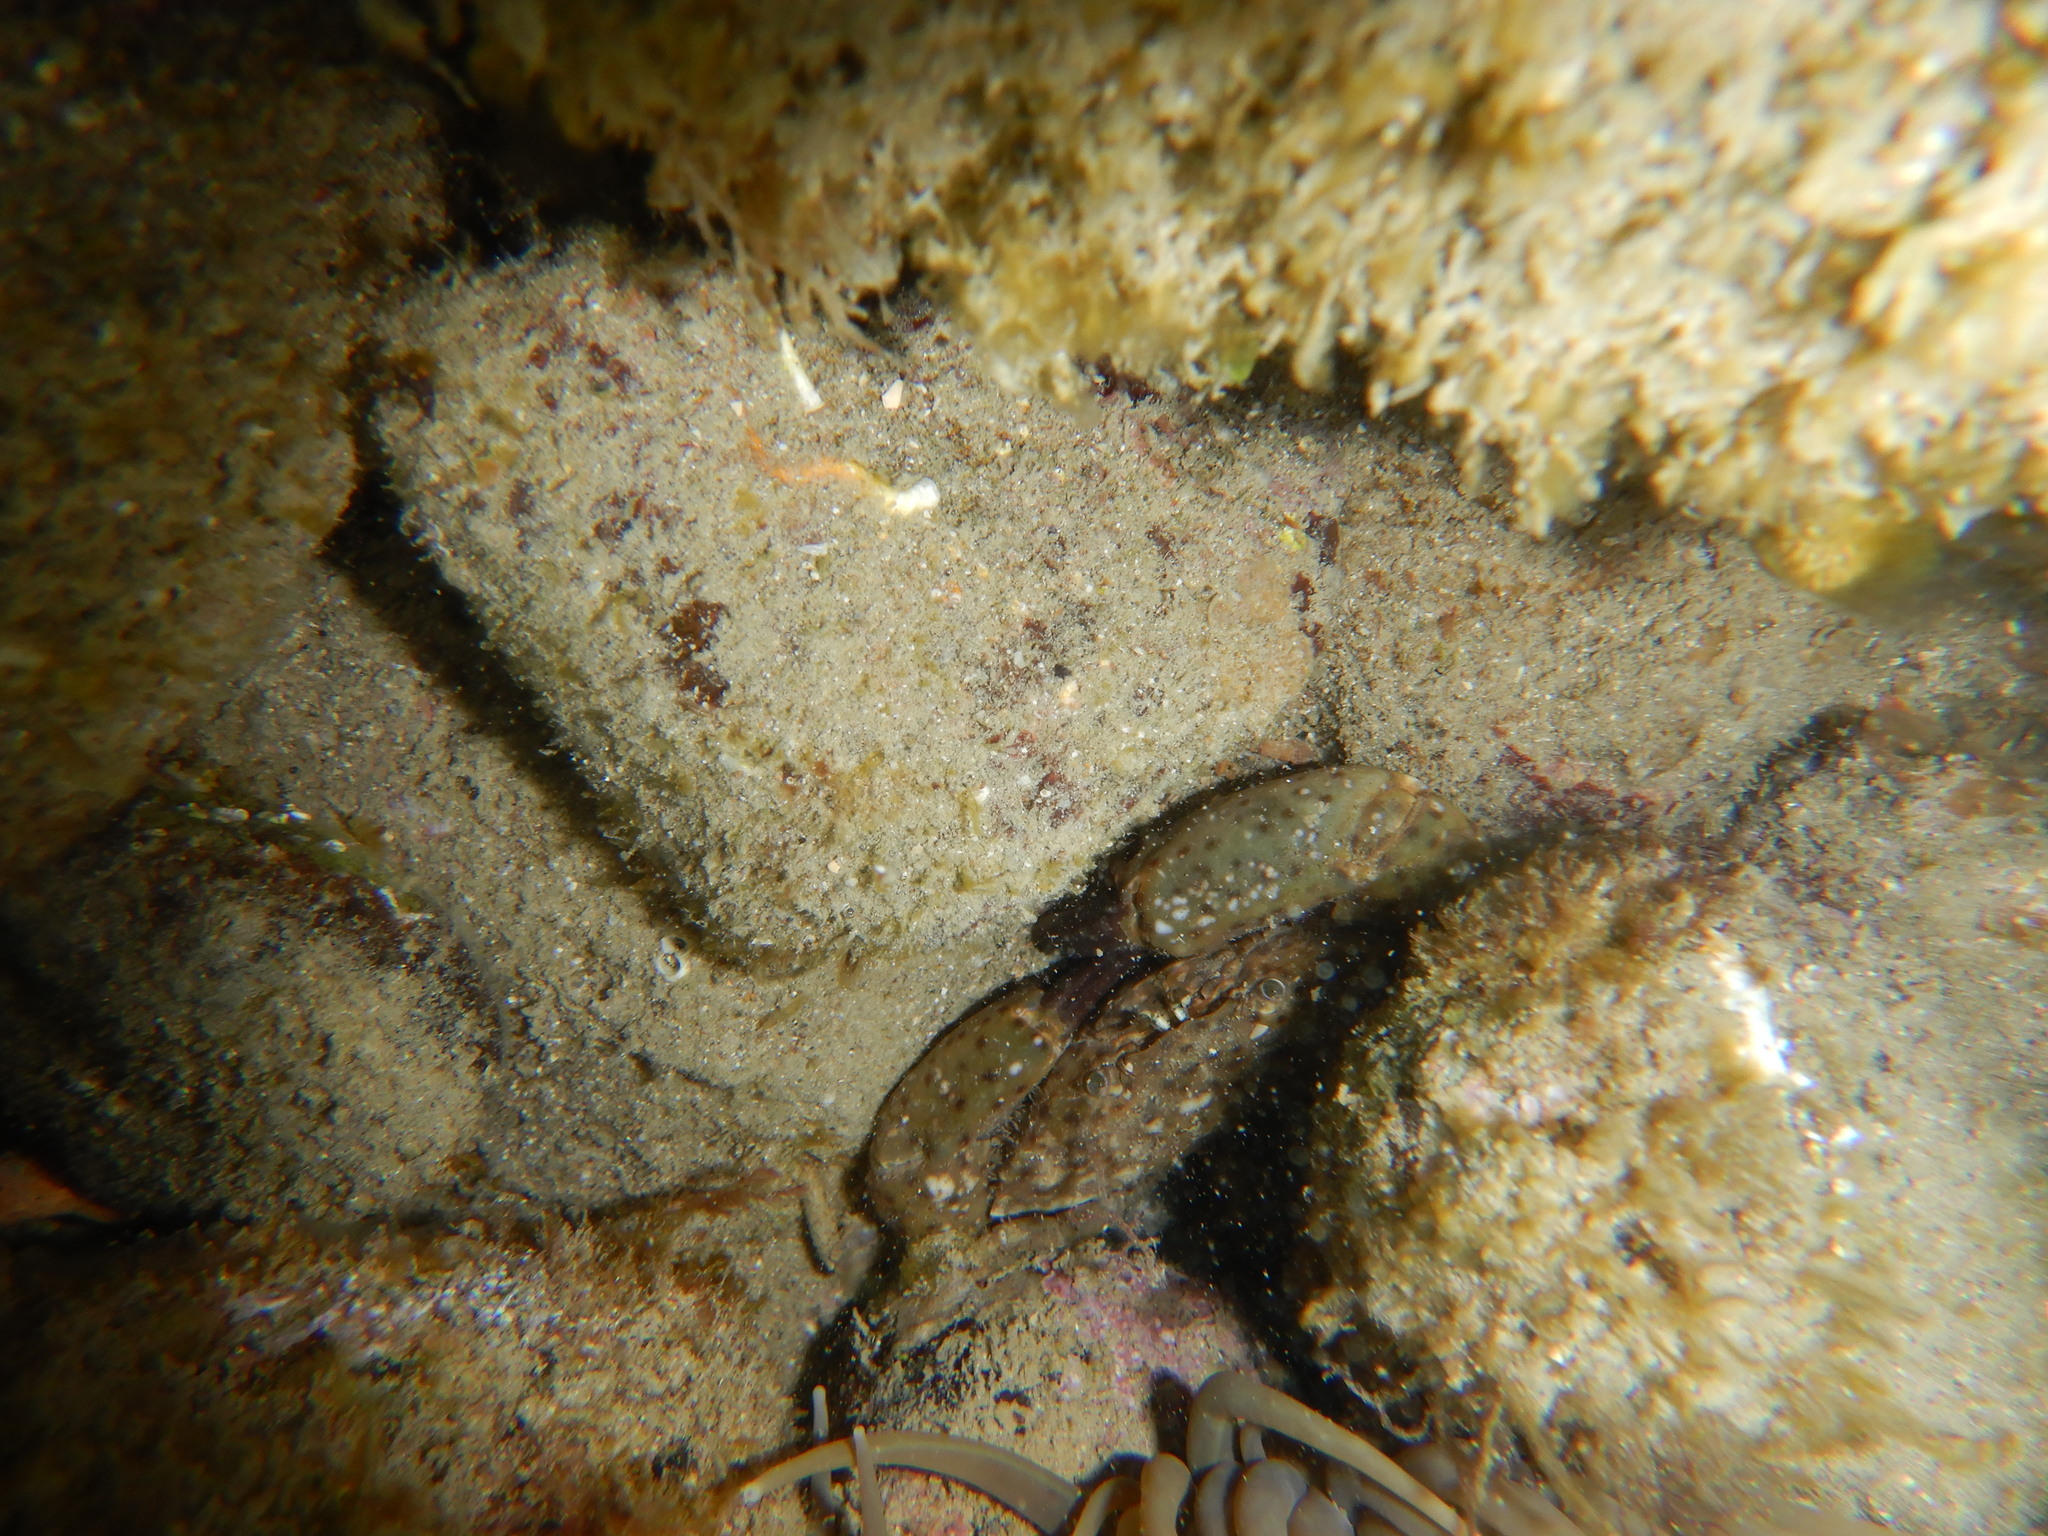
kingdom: Animalia
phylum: Arthropoda
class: Malacostraca
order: Decapoda
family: Xanthidae
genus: Xantho
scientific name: Xantho poressa
